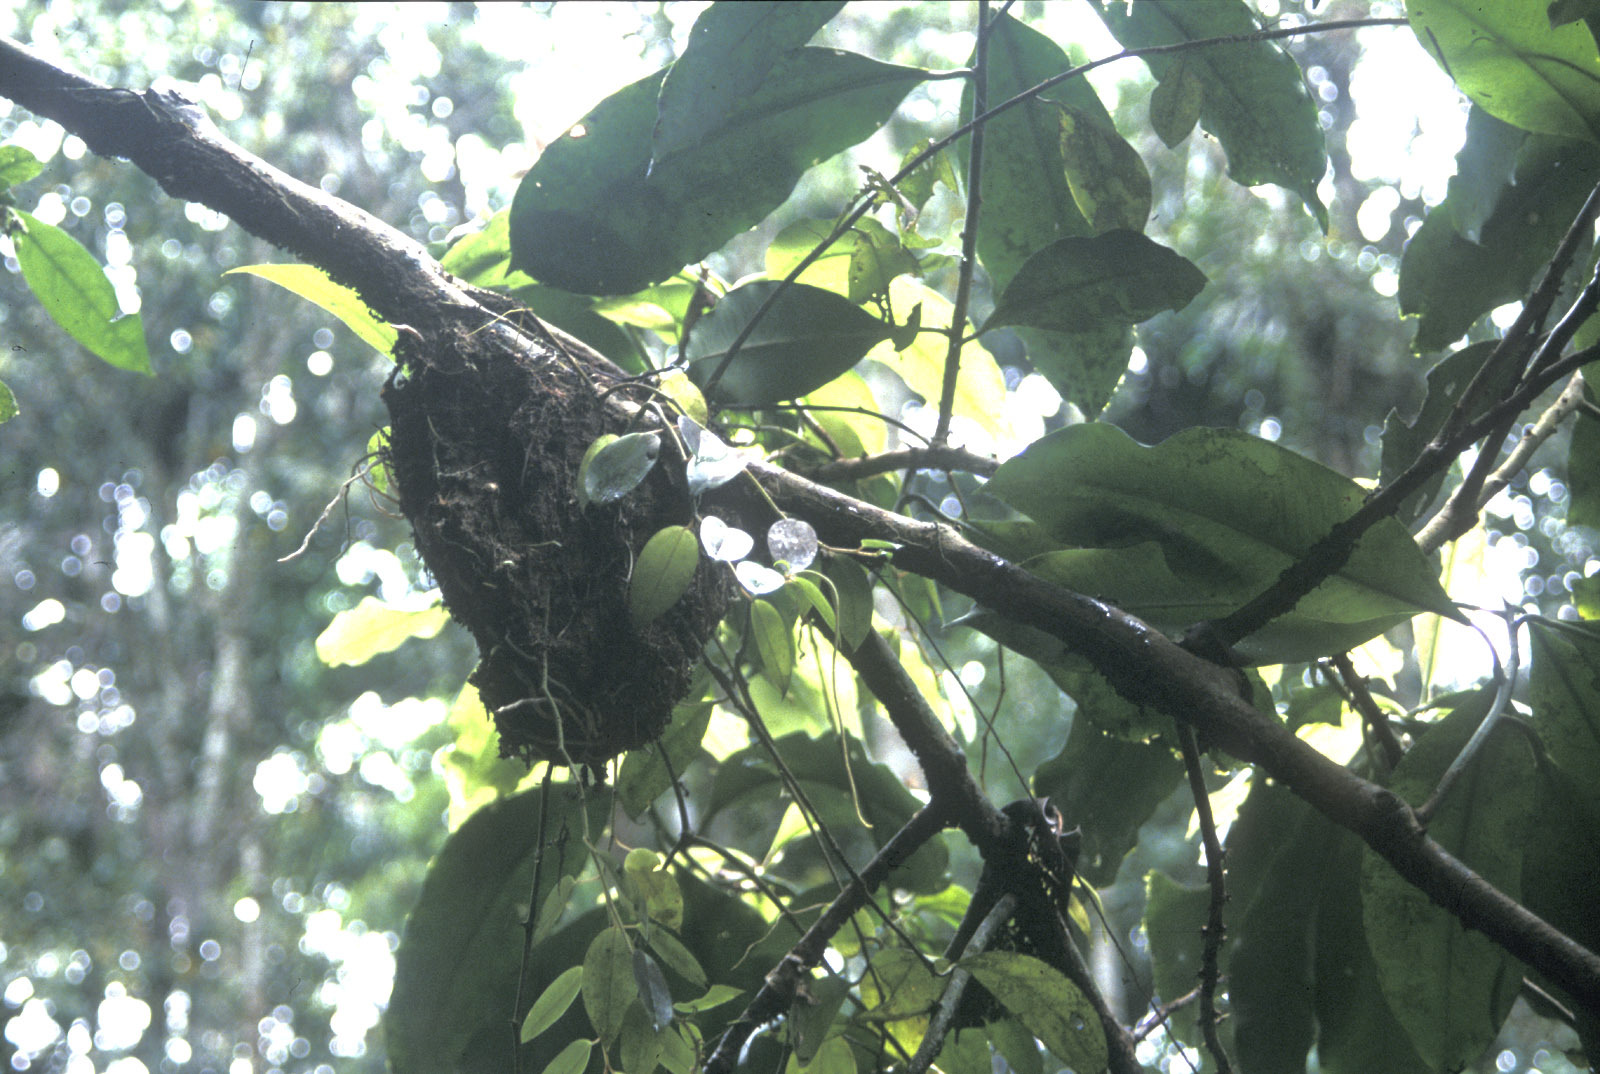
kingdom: Animalia
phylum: Arthropoda
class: Insecta
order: Hymenoptera
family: Formicidae
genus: Camponotus
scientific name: Camponotus femoratus
